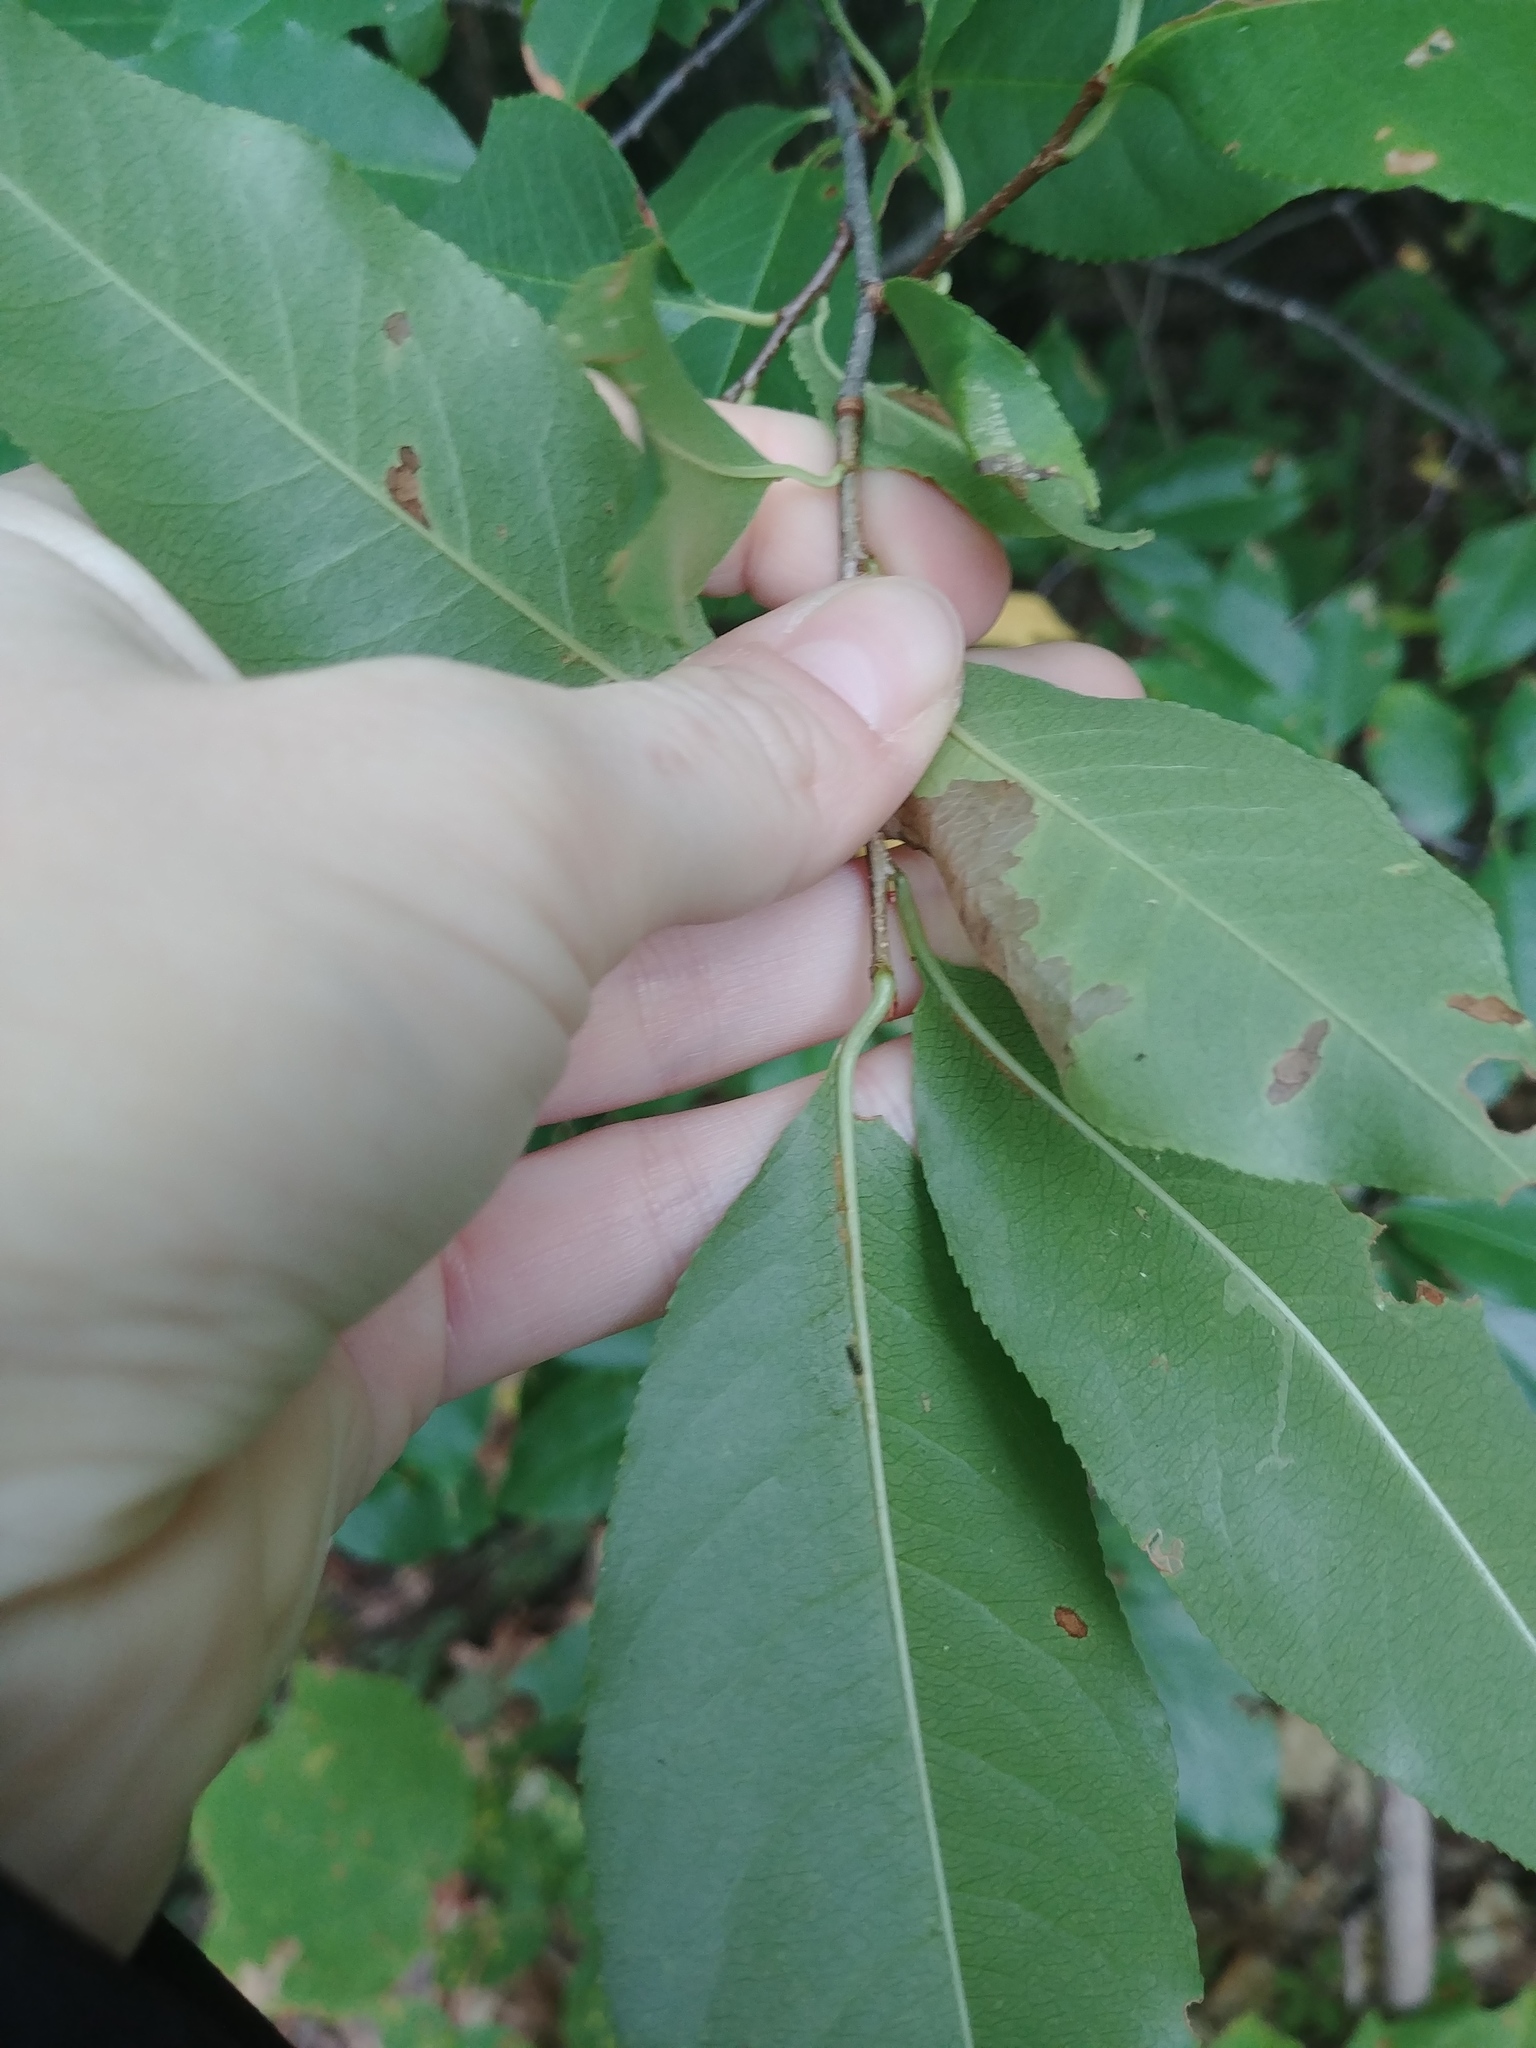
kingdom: Plantae
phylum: Tracheophyta
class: Magnoliopsida
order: Rosales
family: Rosaceae
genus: Prunus
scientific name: Prunus serotina
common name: Black cherry
